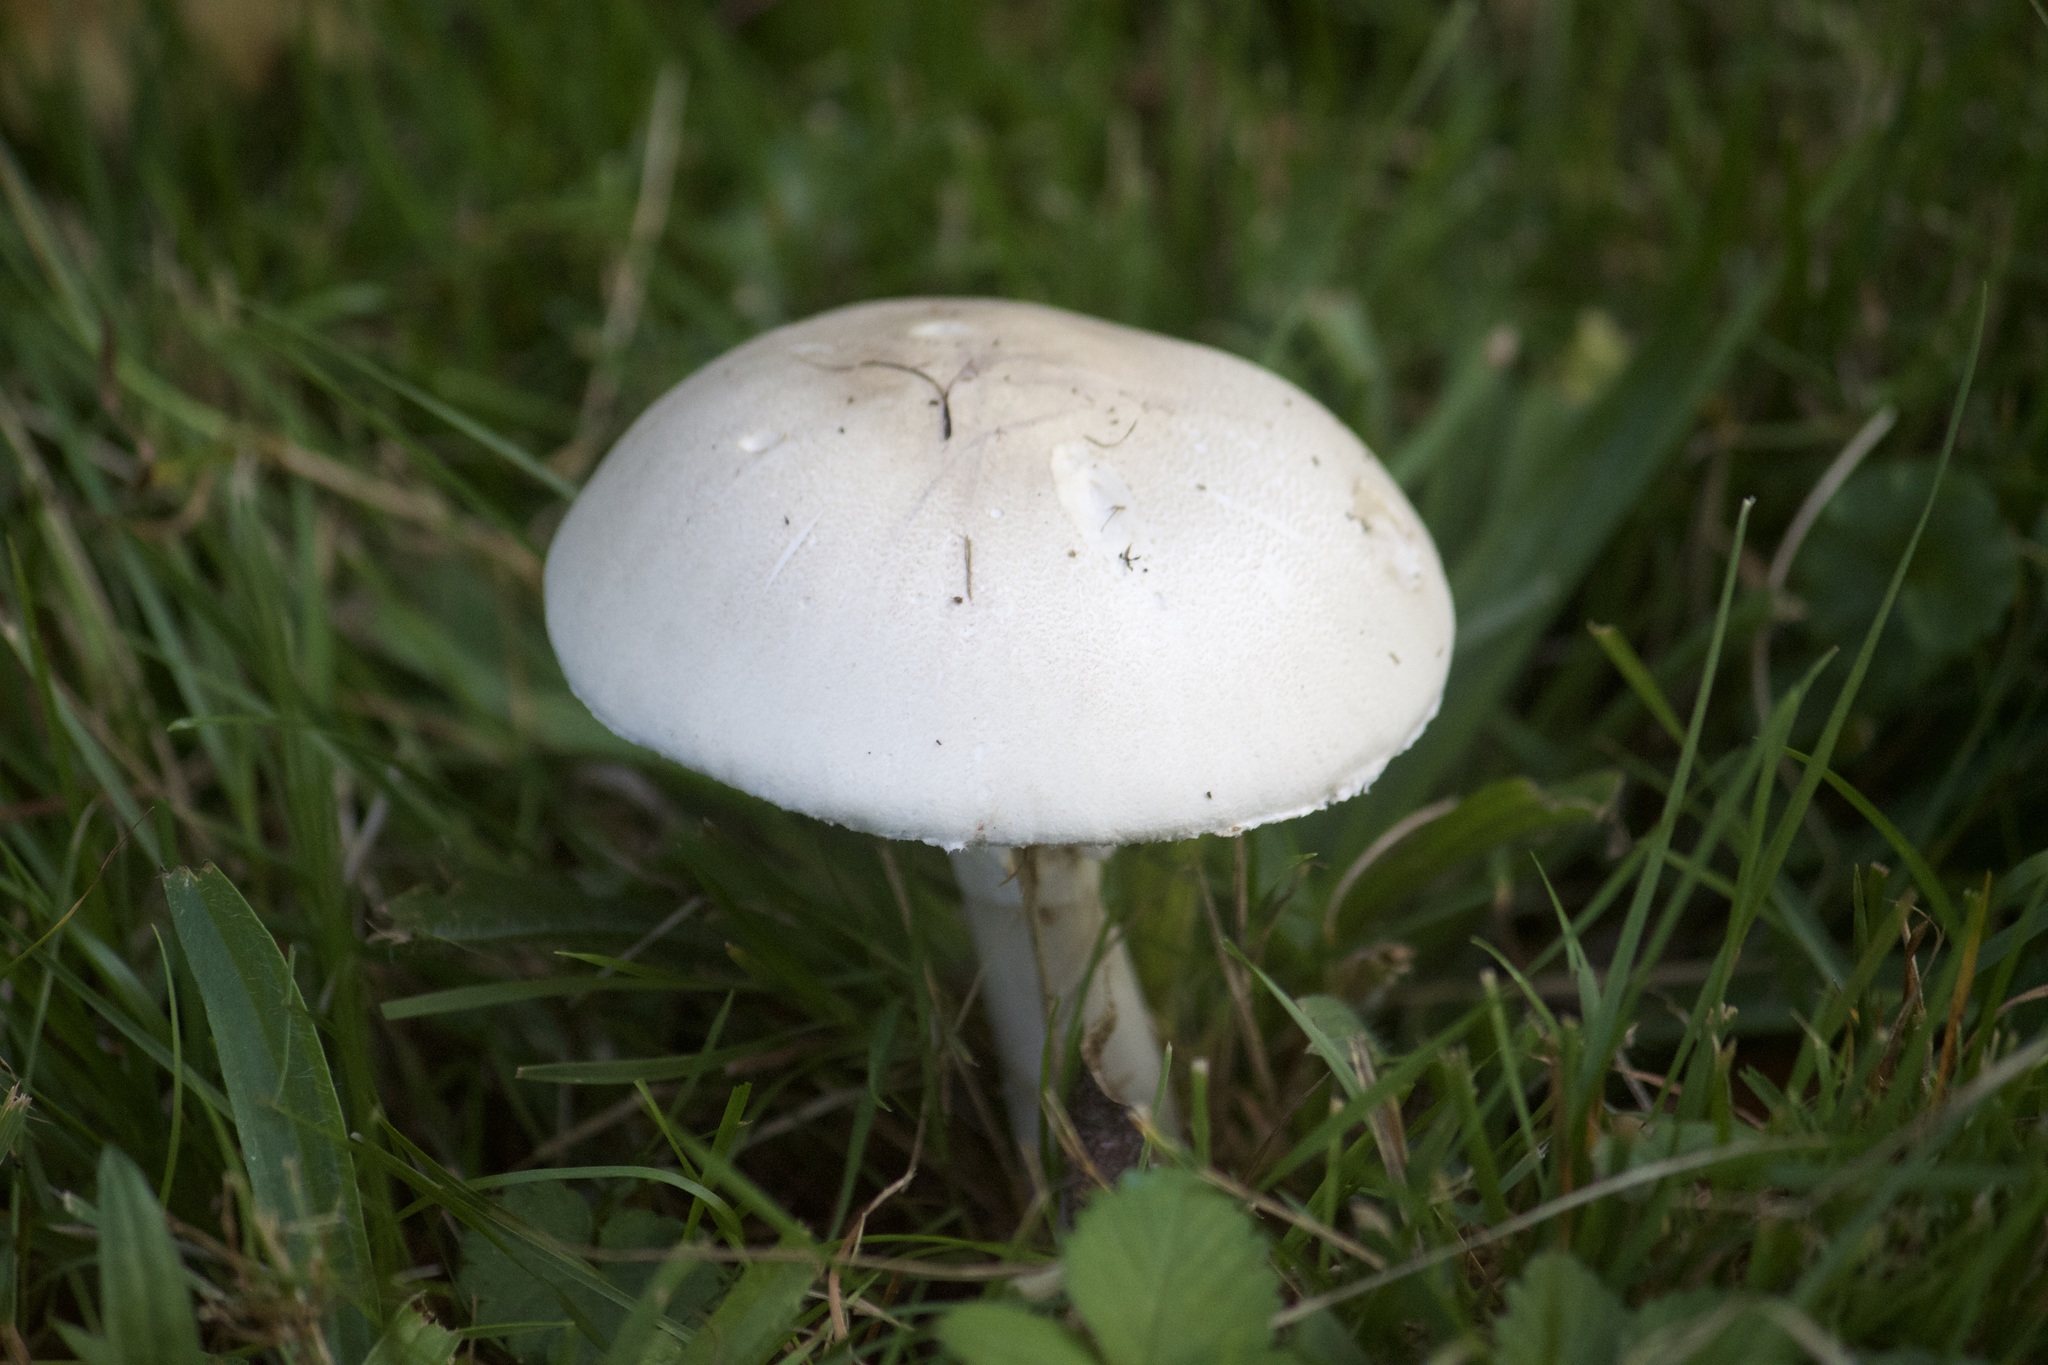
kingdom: Fungi
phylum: Basidiomycota
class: Agaricomycetes
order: Agaricales
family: Agaricaceae
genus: Leucoagaricus
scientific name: Leucoagaricus leucothites
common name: White dapperling
